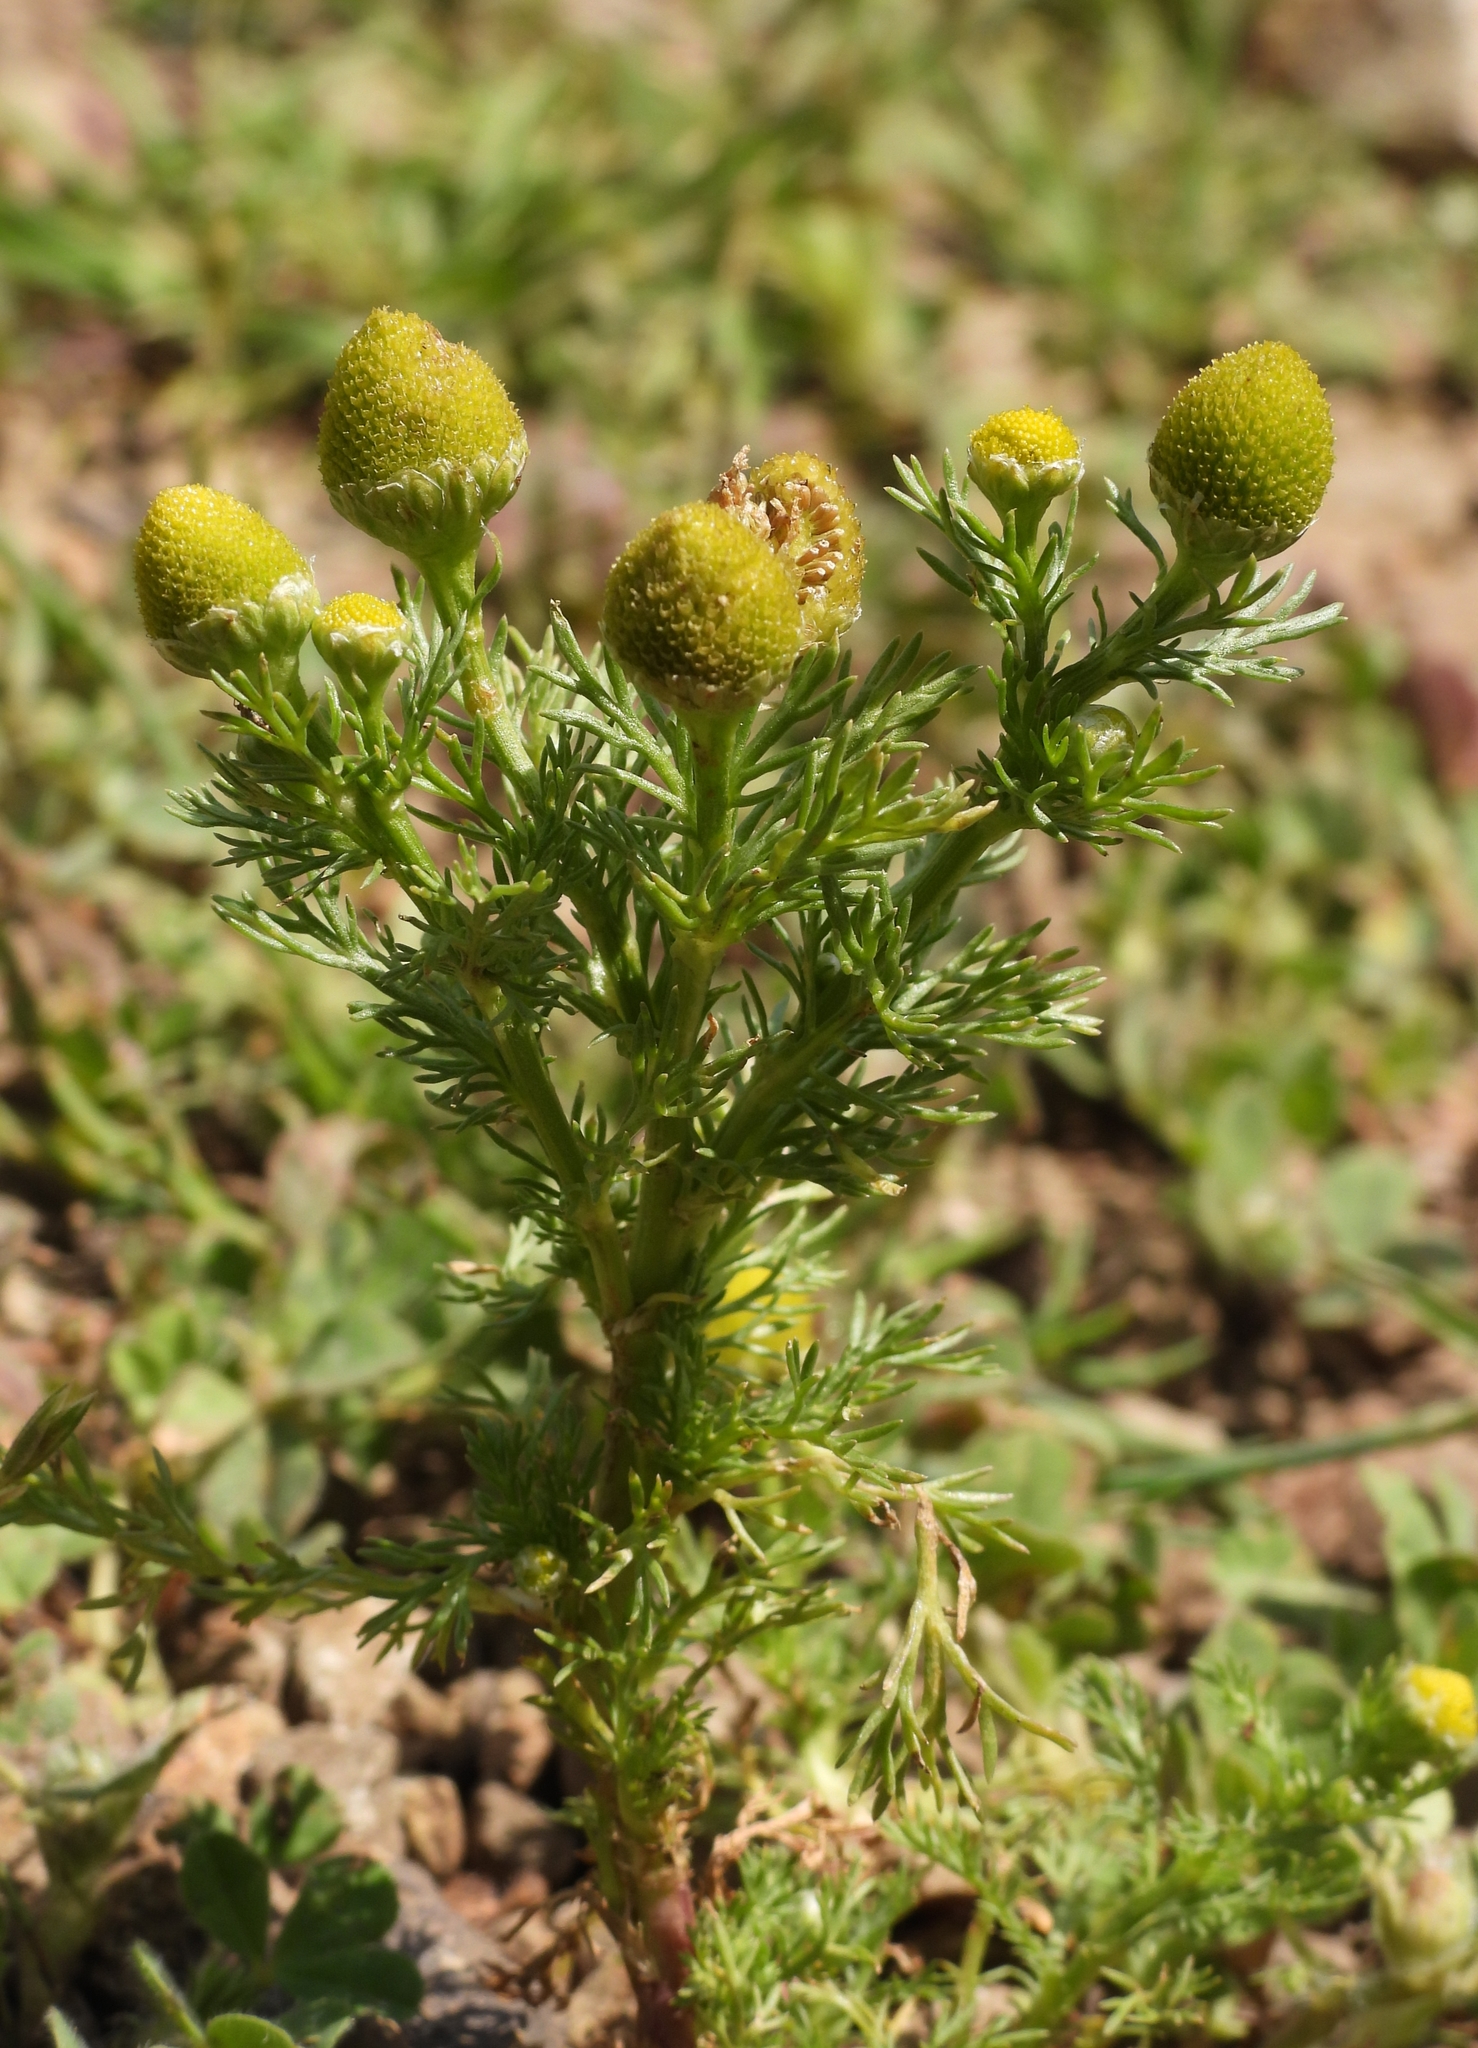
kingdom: Plantae
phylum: Tracheophyta
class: Magnoliopsida
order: Asterales
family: Asteraceae
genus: Matricaria
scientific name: Matricaria discoidea
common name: Disc mayweed
